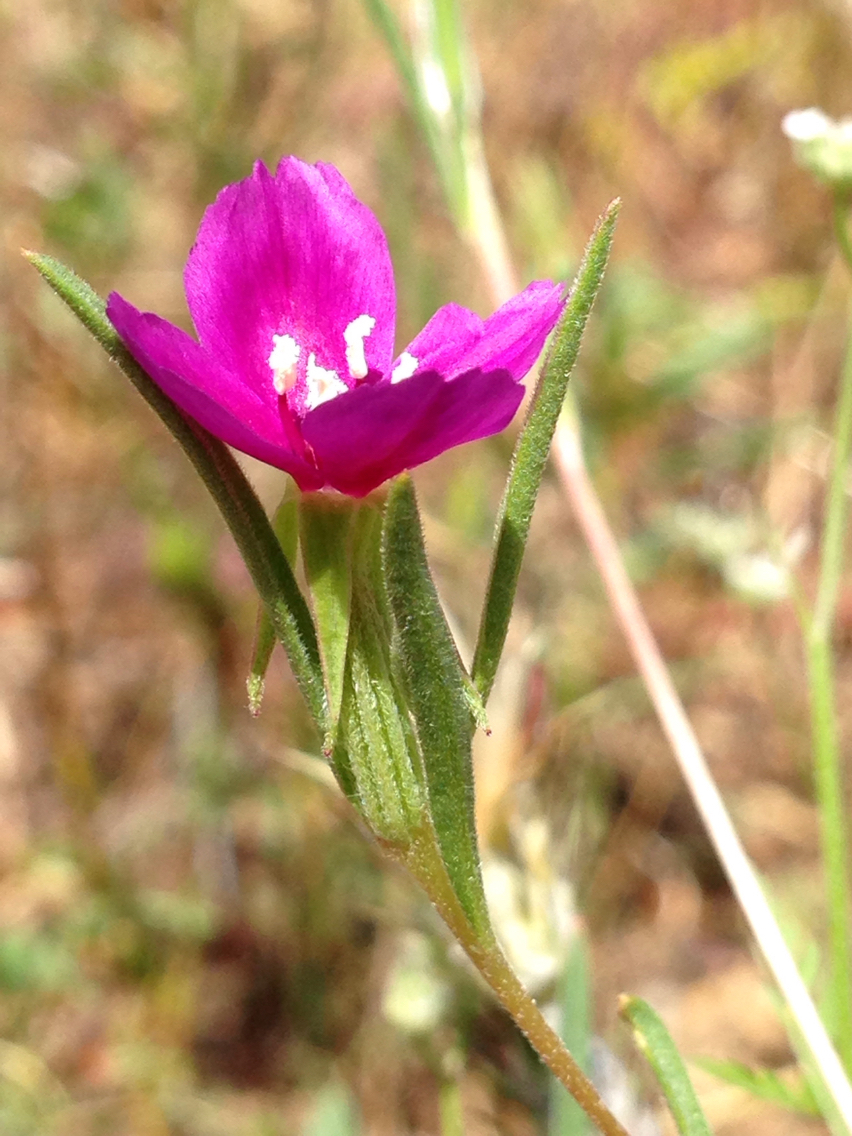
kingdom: Plantae
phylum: Tracheophyta
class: Magnoliopsida
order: Myrtales
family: Onagraceae
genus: Clarkia
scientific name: Clarkia purpurea
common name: Purple clarkia
